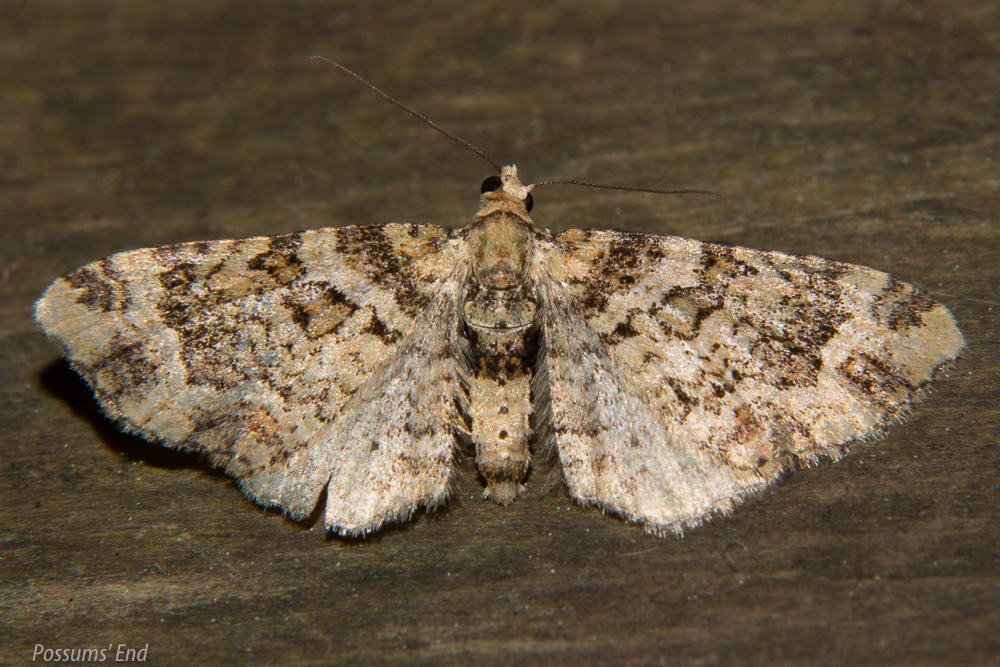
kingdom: Animalia
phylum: Arthropoda
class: Insecta
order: Lepidoptera
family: Geometridae
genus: Pasiphila
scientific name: Pasiphila muscosata
